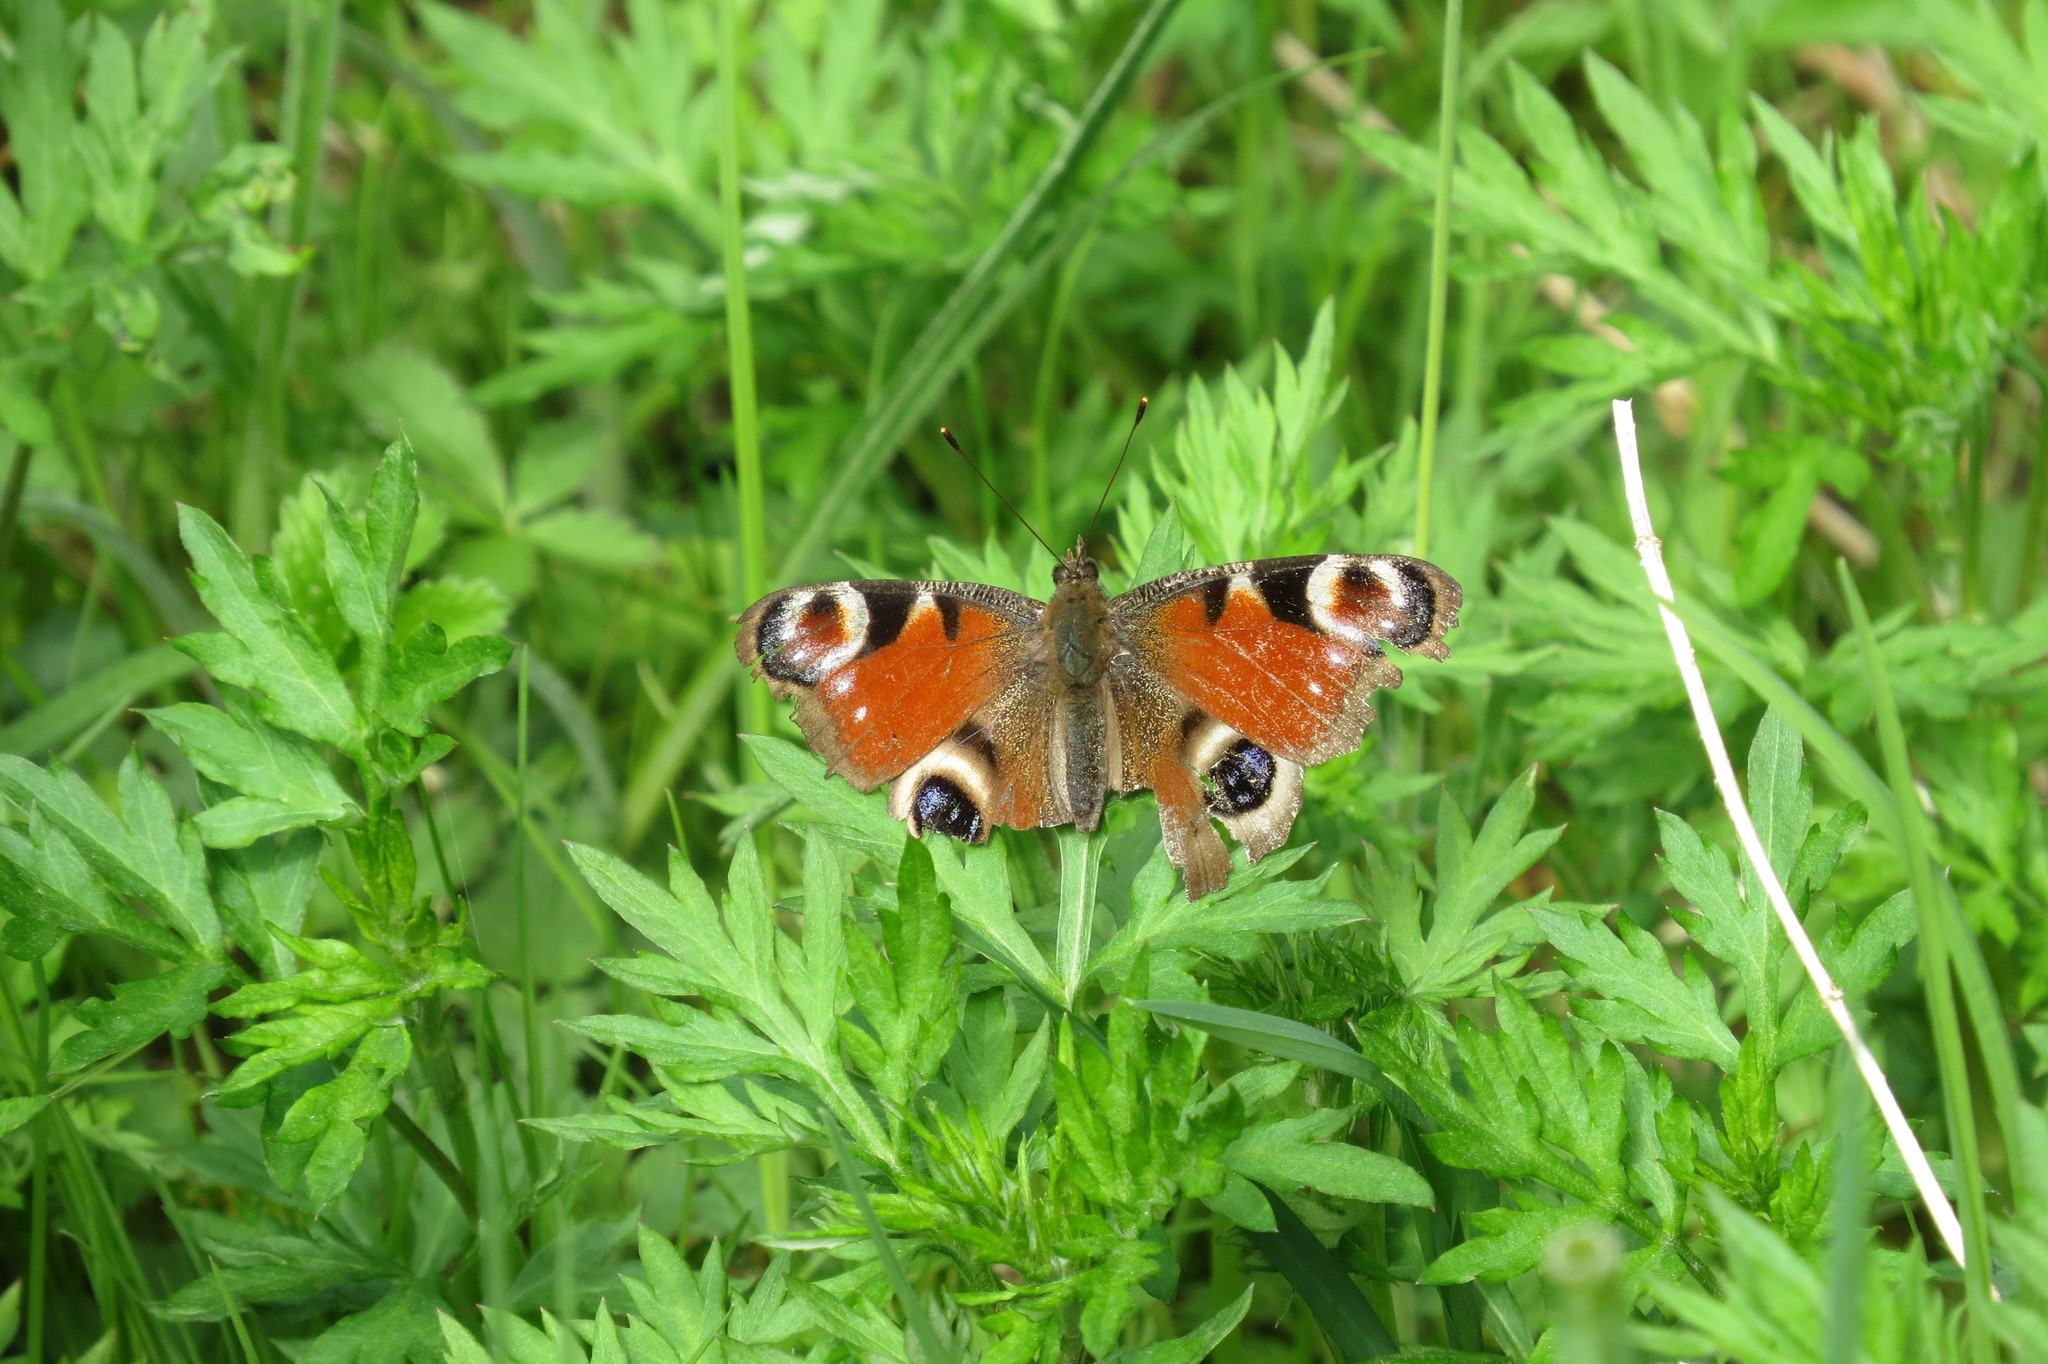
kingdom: Animalia
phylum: Arthropoda
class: Insecta
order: Lepidoptera
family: Nymphalidae
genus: Aglais
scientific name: Aglais io
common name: Peacock
